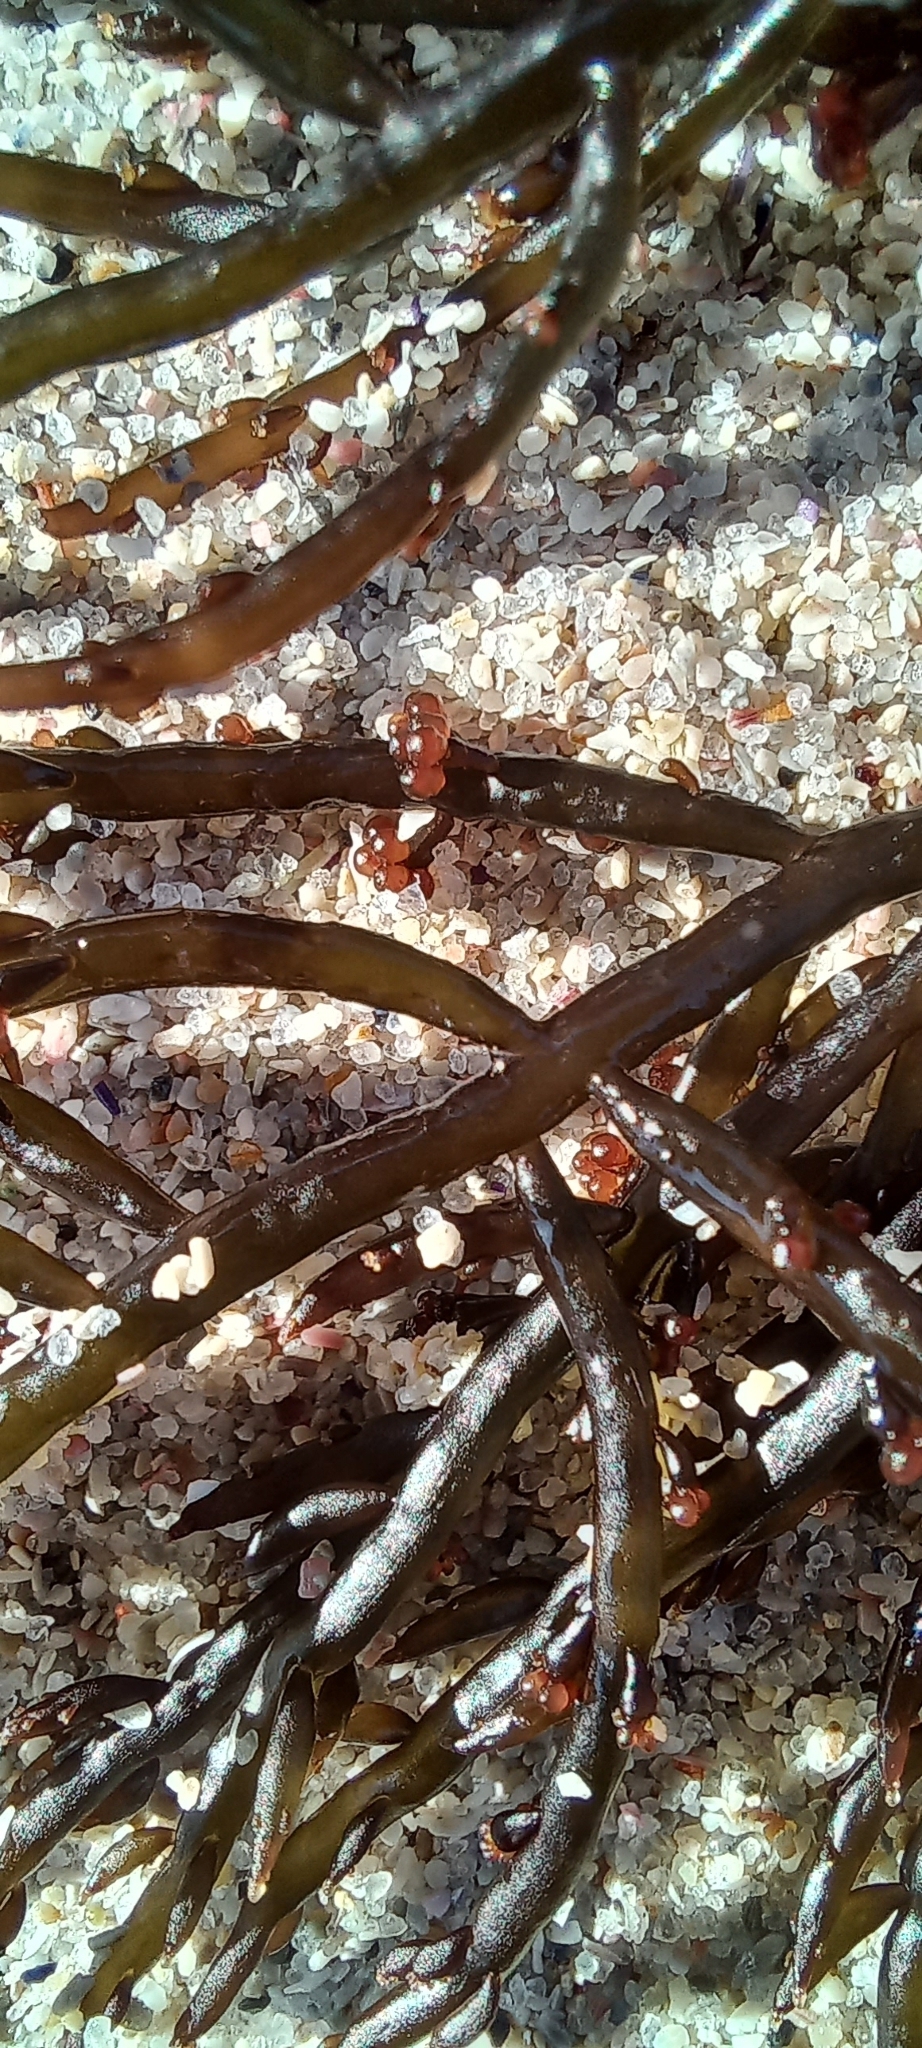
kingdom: Chromista
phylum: Ochrophyta
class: Phaeophyceae
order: Fucales
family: Sargassaceae
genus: Brassicophycus
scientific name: Brassicophycus
